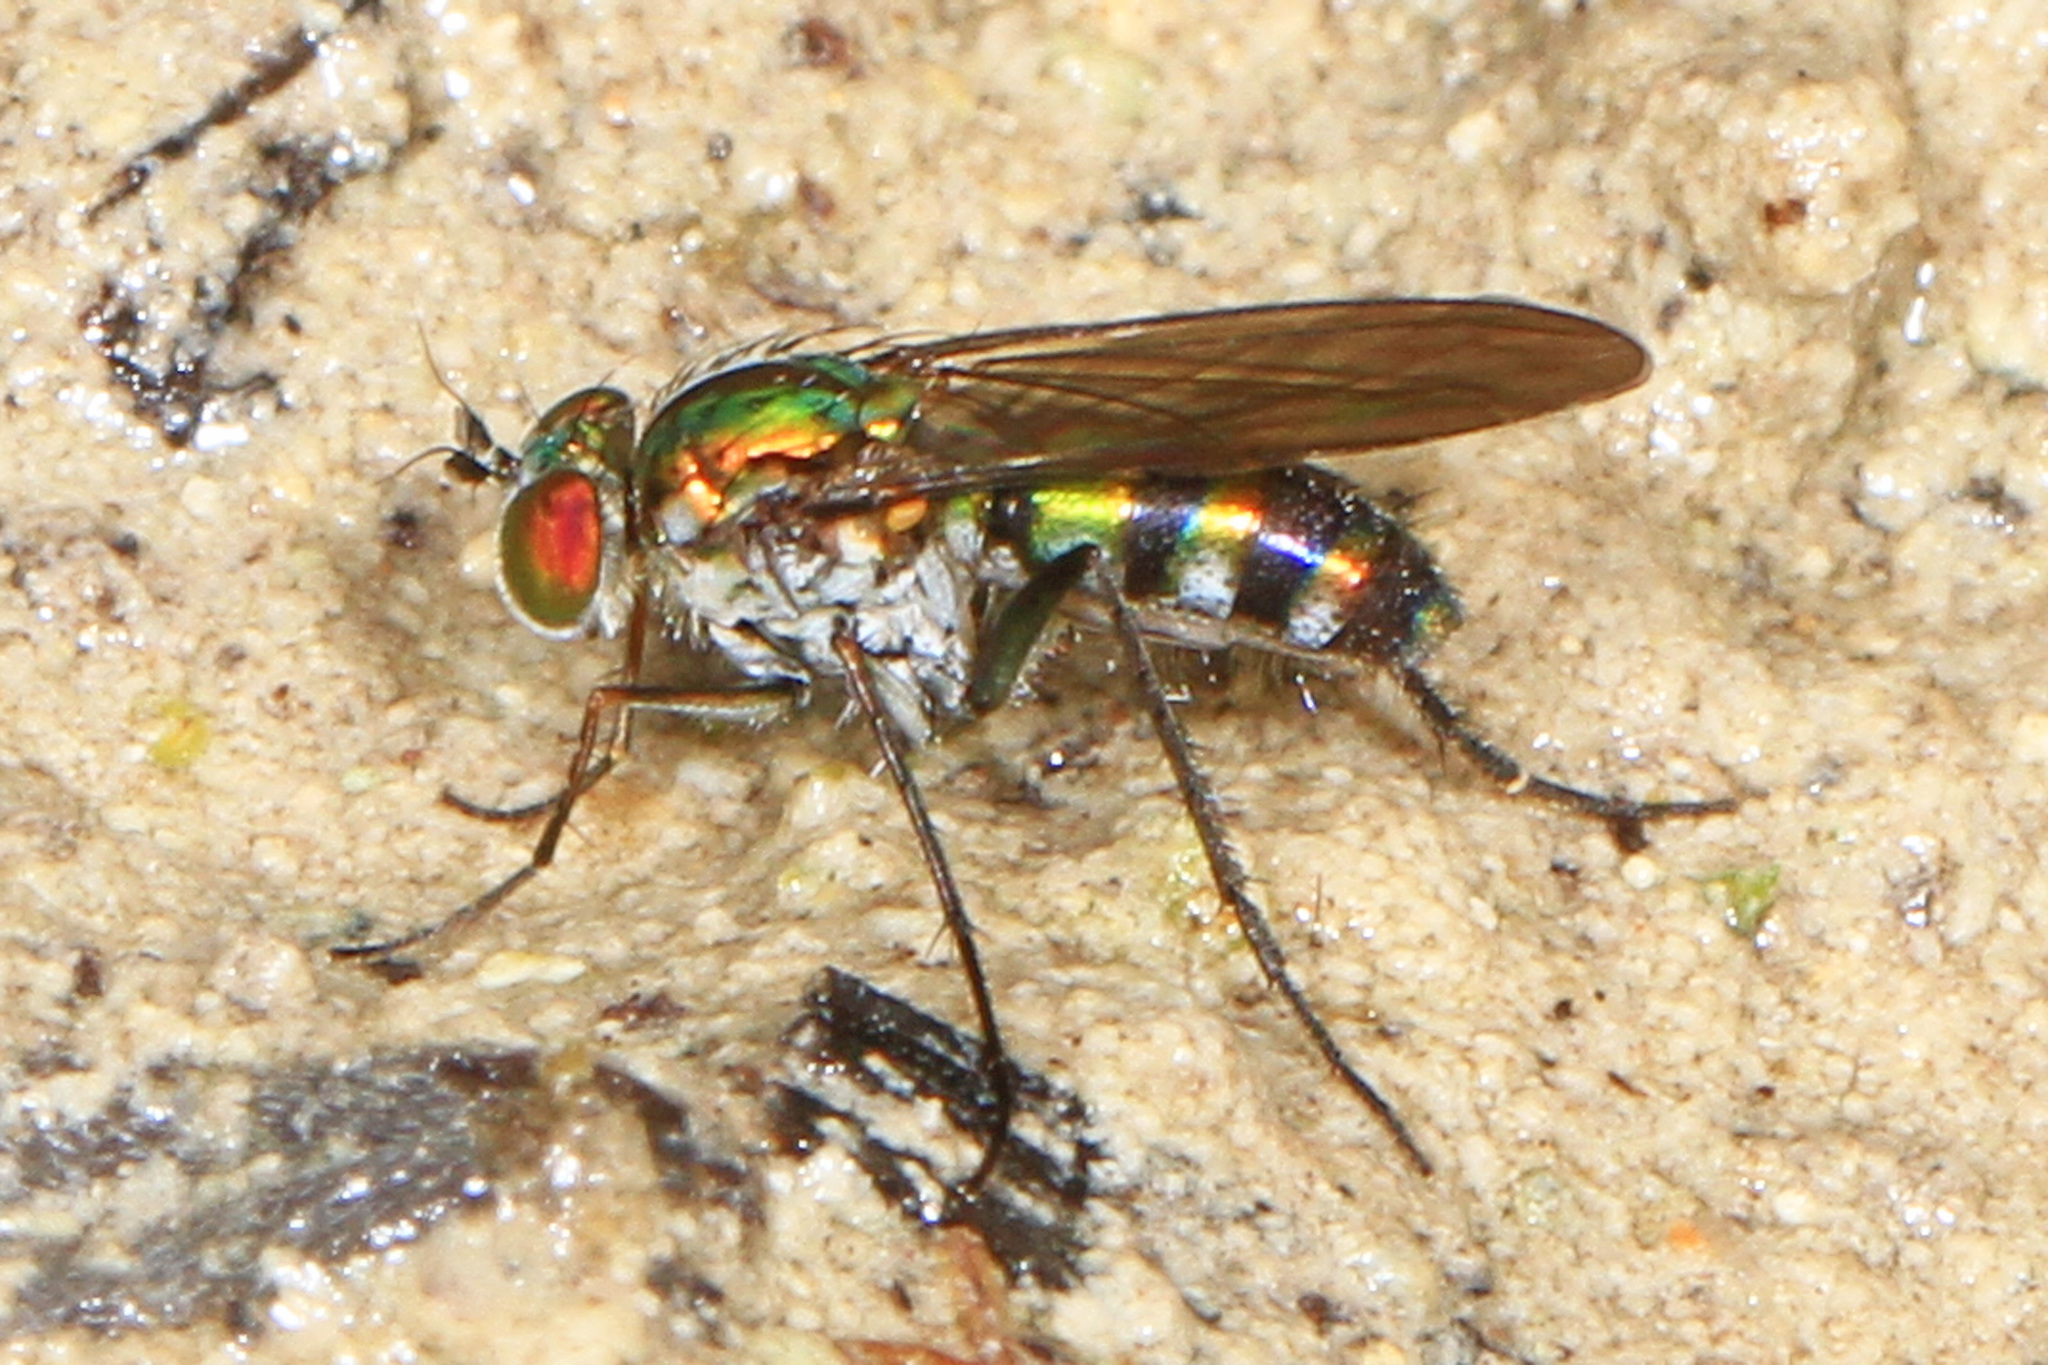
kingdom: Animalia
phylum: Arthropoda
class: Insecta
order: Diptera
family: Dolichopodidae
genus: Plagioneurus
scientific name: Plagioneurus univittatus
